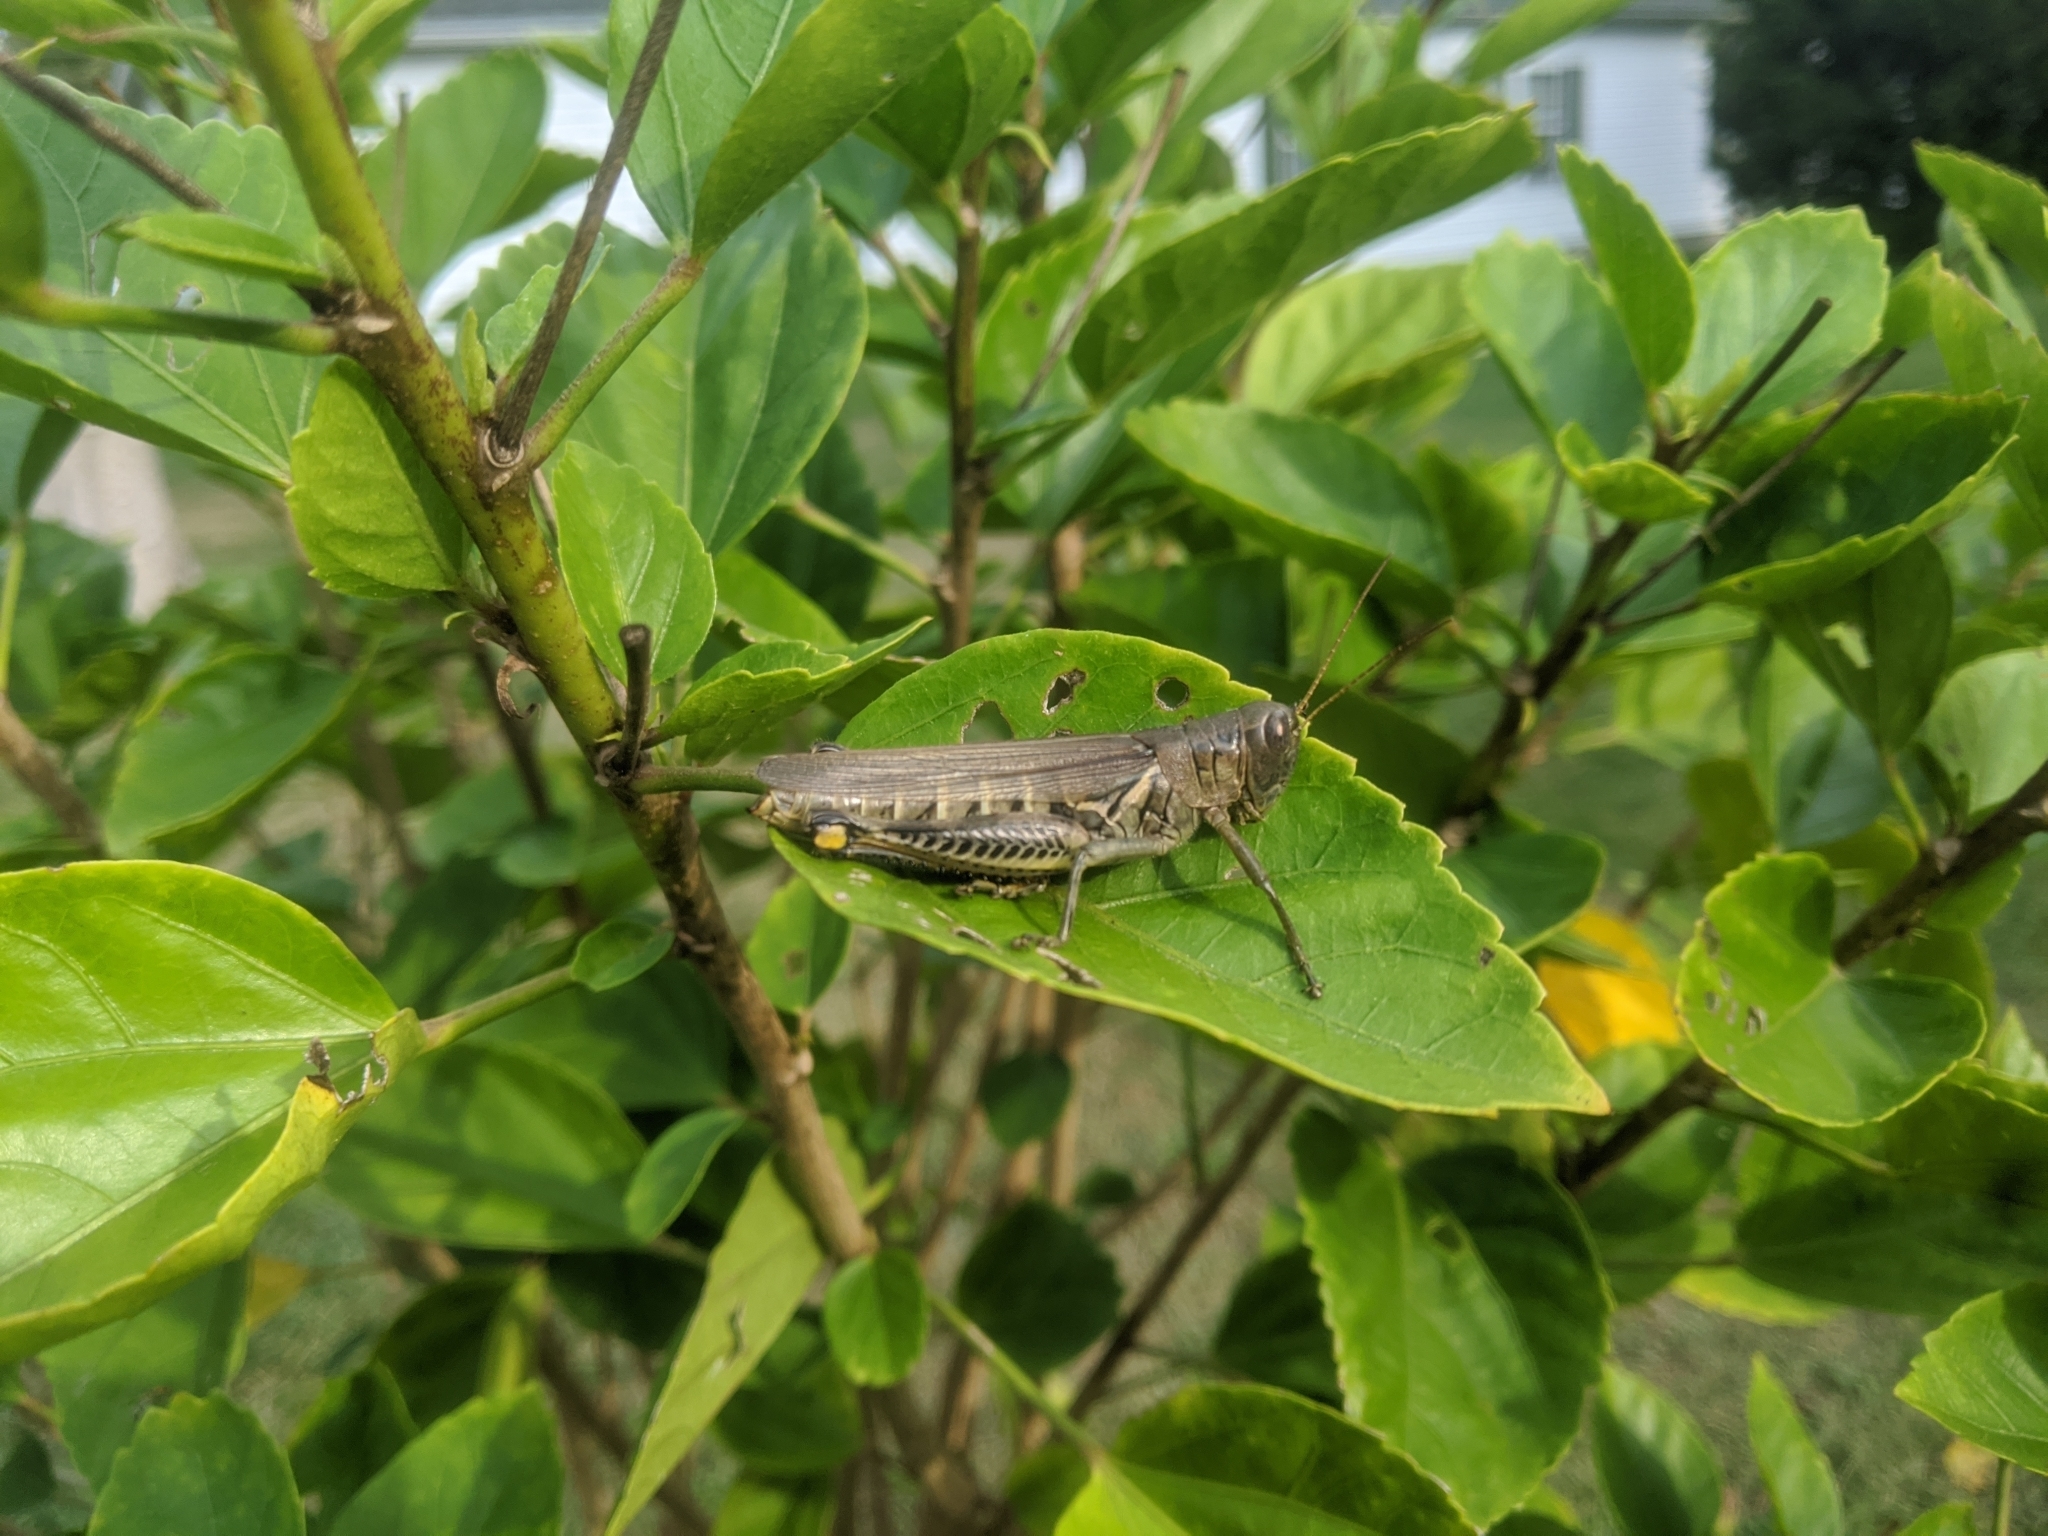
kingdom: Animalia
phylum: Arthropoda
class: Insecta
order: Orthoptera
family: Acrididae
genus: Melanoplus
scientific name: Melanoplus differentialis
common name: Differential grasshopper
